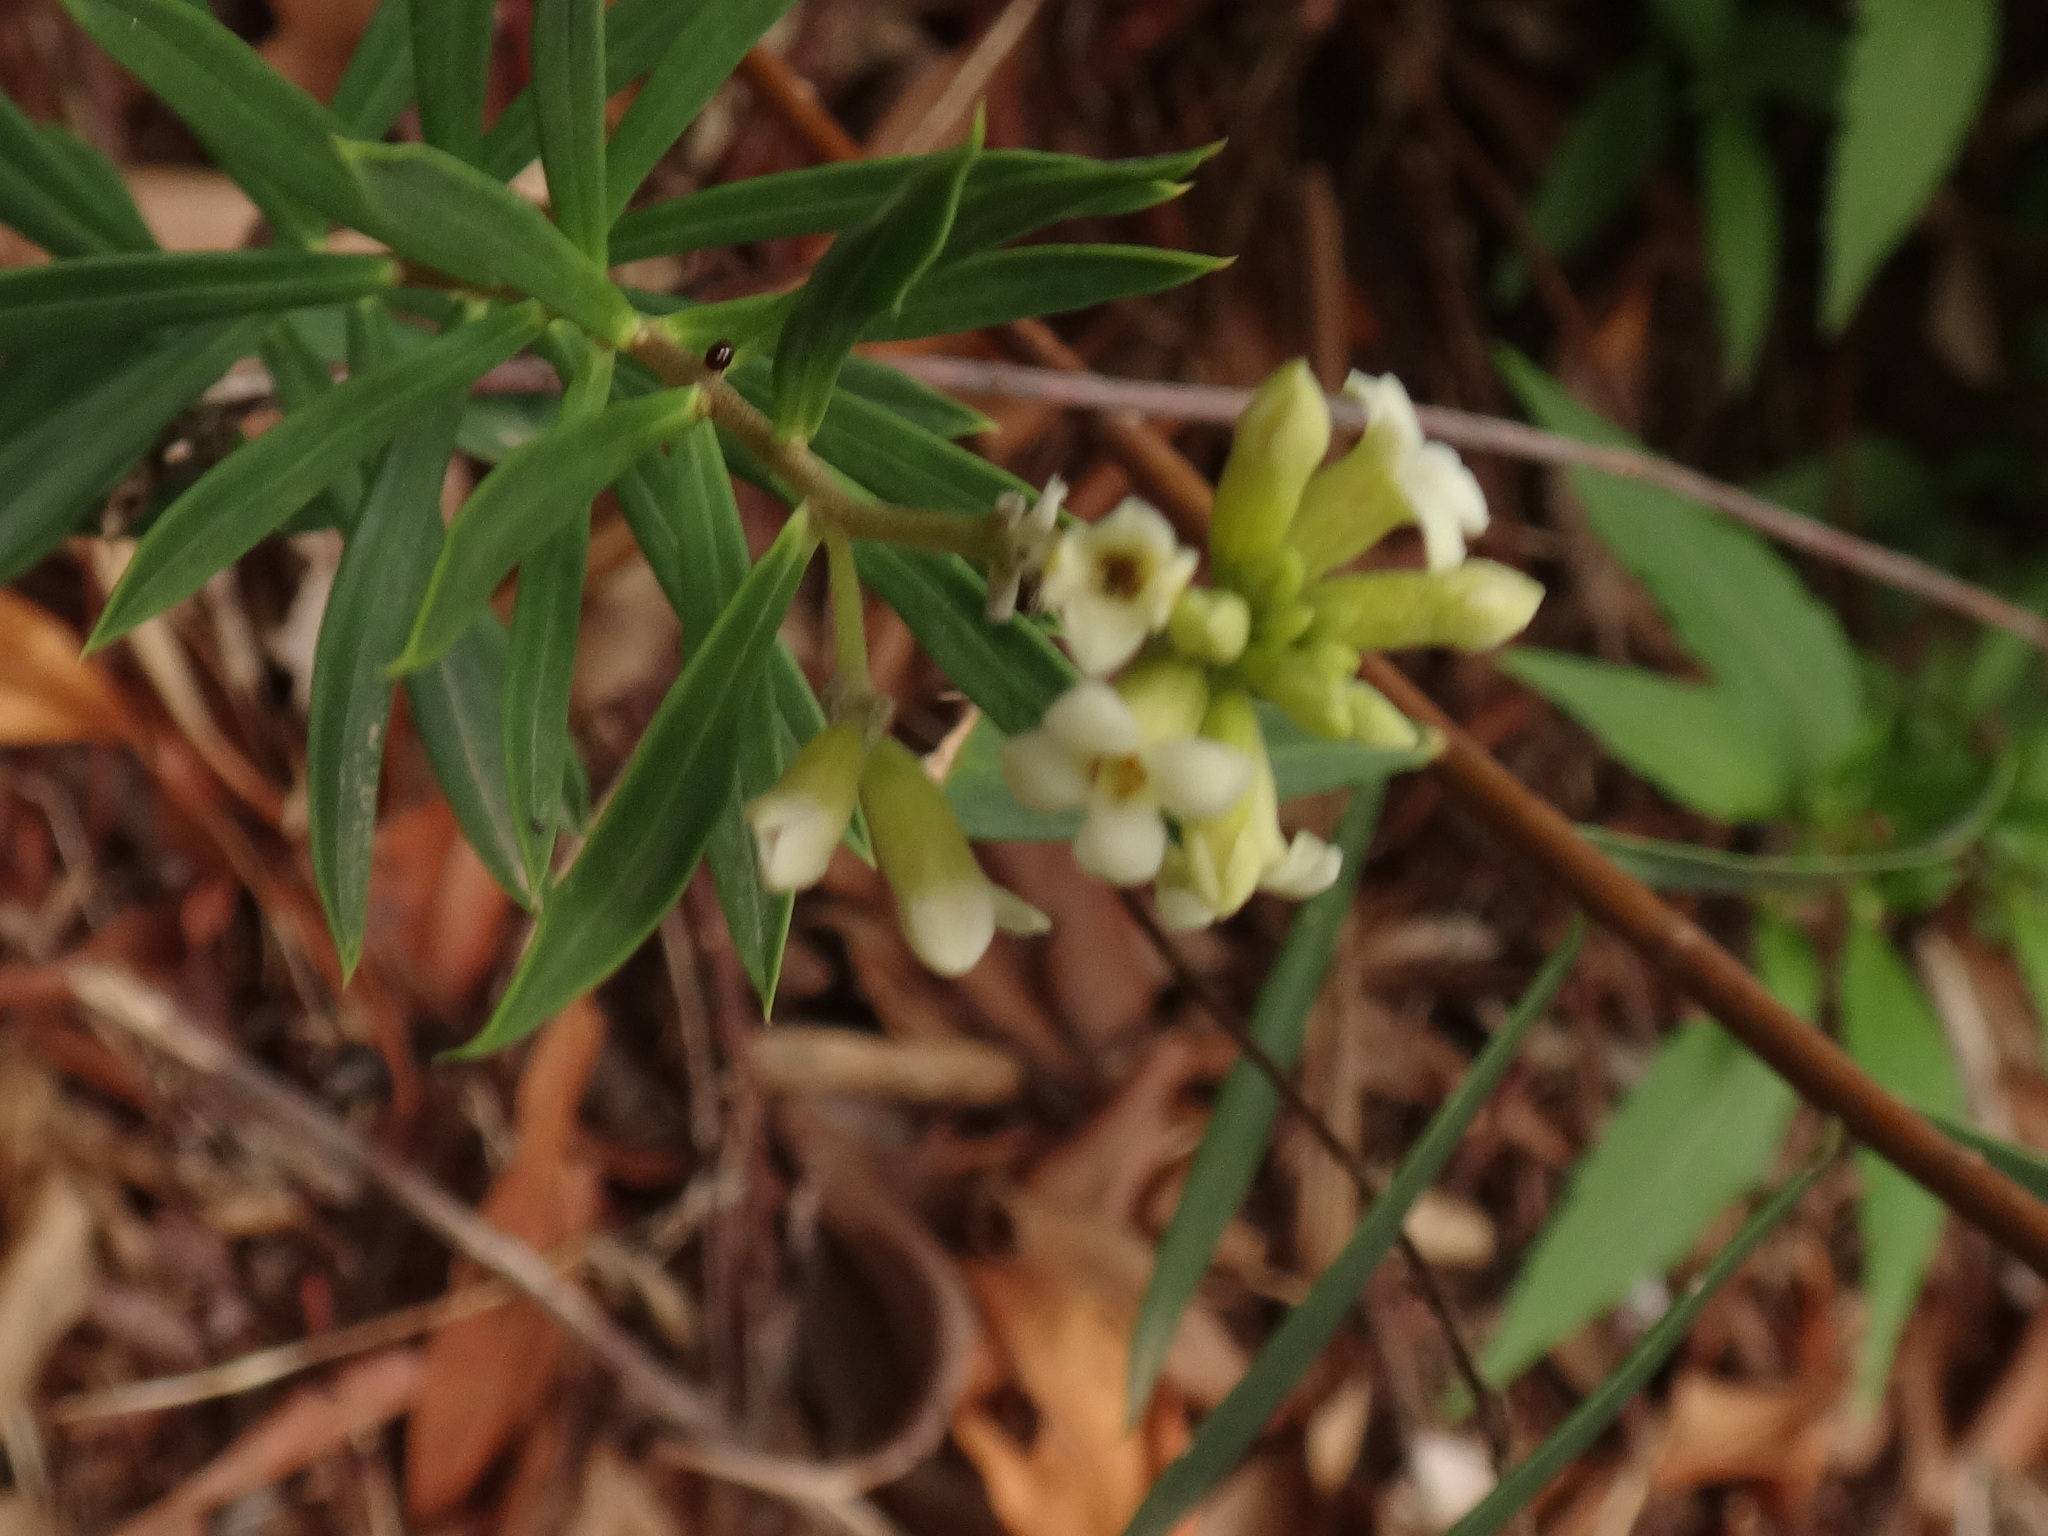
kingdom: Plantae
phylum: Tracheophyta
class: Magnoliopsida
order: Malvales
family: Thymelaeaceae
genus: Daphne
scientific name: Daphne gnidium
